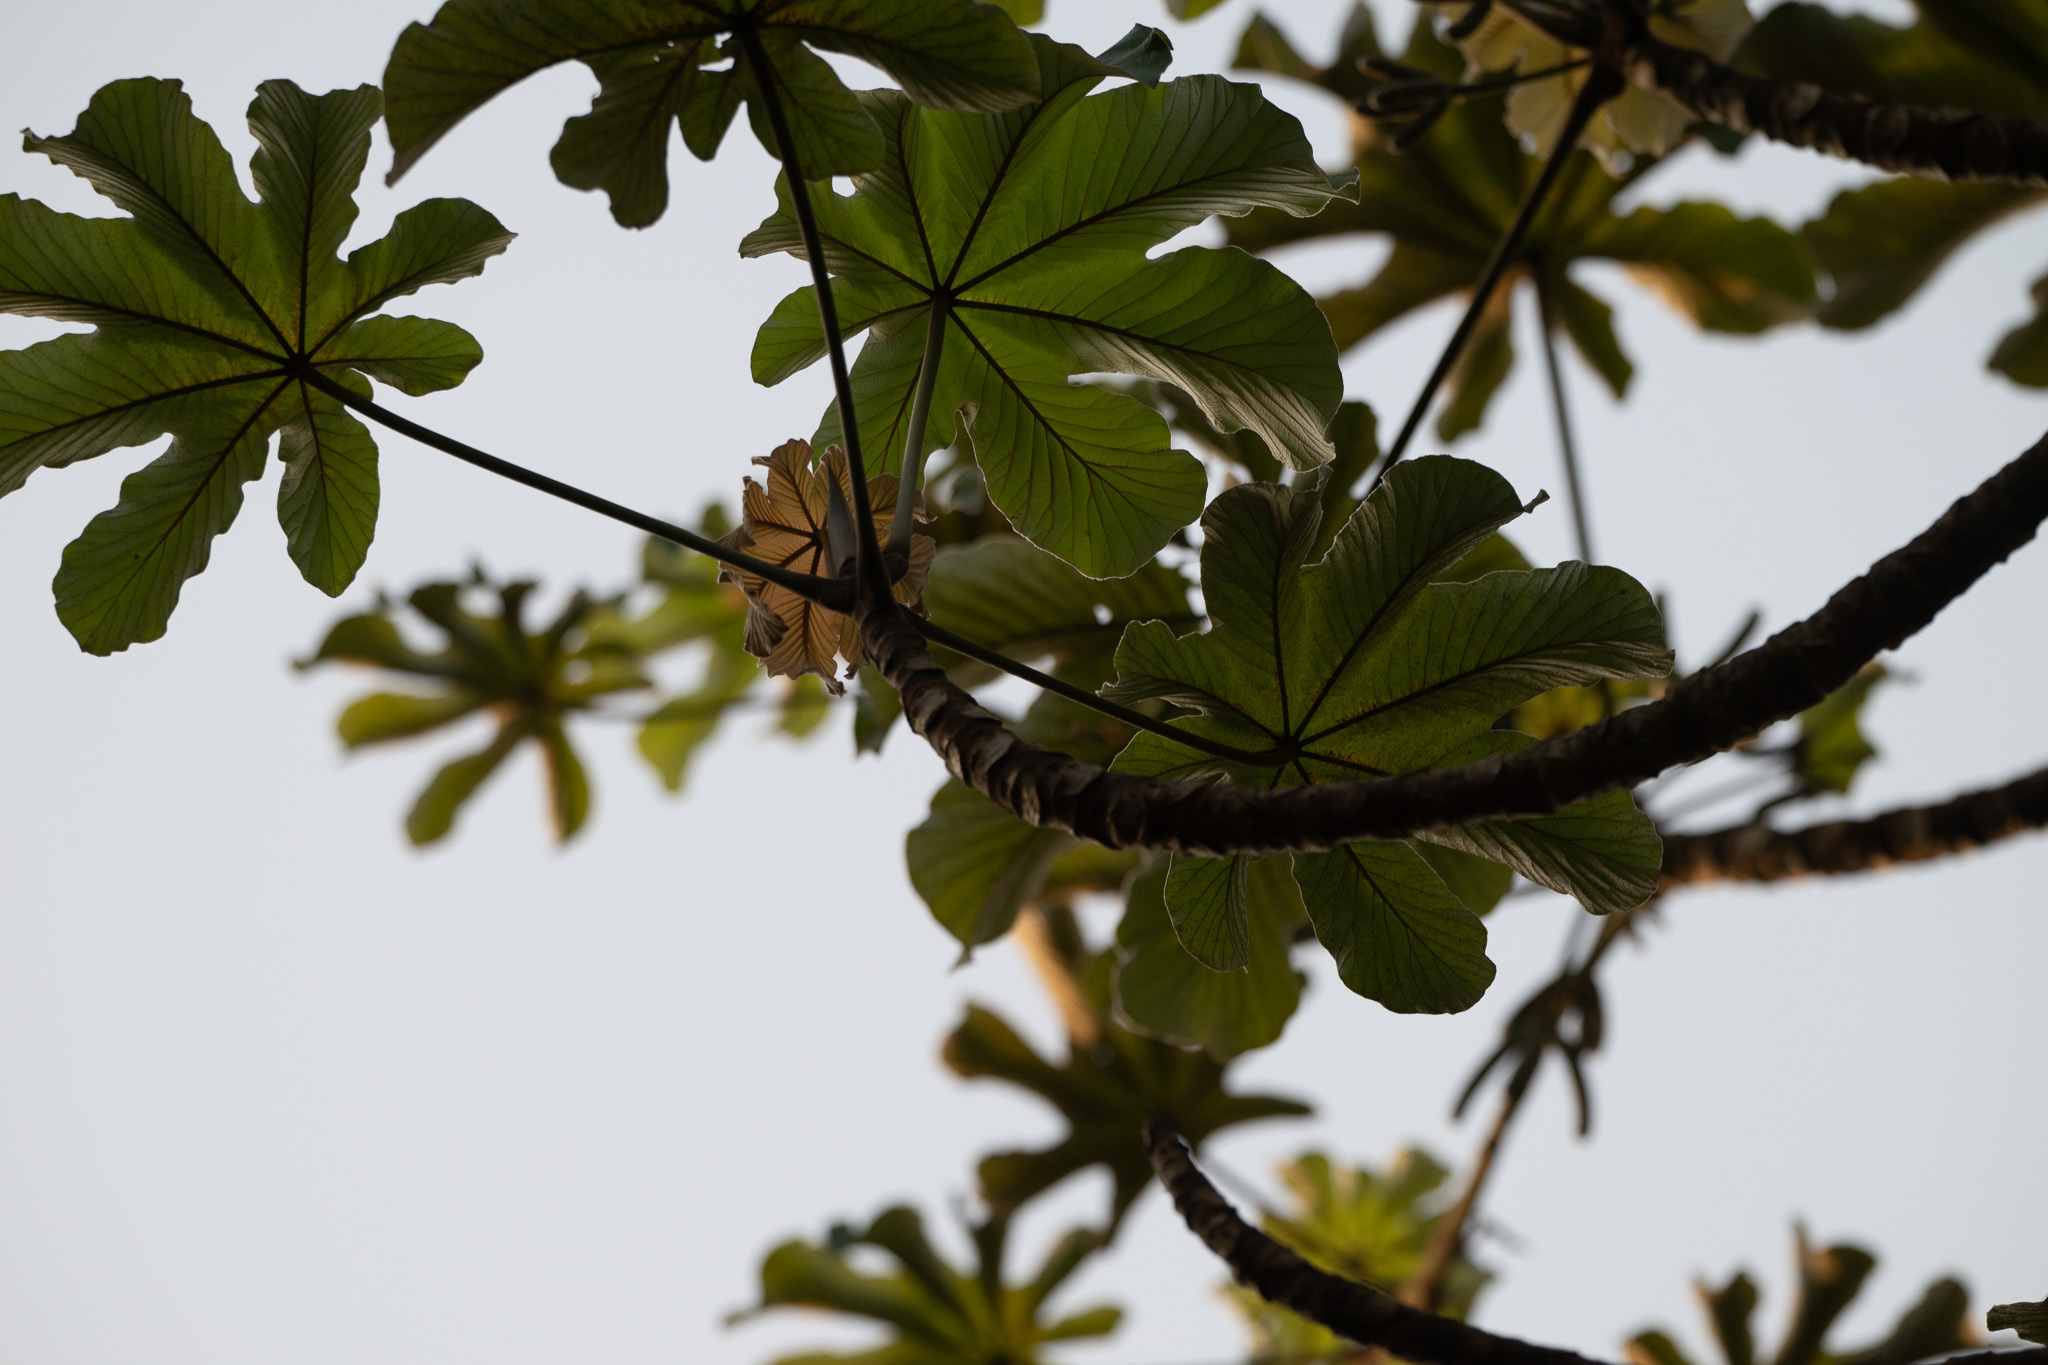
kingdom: Plantae
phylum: Tracheophyta
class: Magnoliopsida
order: Rosales
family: Urticaceae
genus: Cecropia
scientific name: Cecropia peltata
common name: Trumpet-tree
